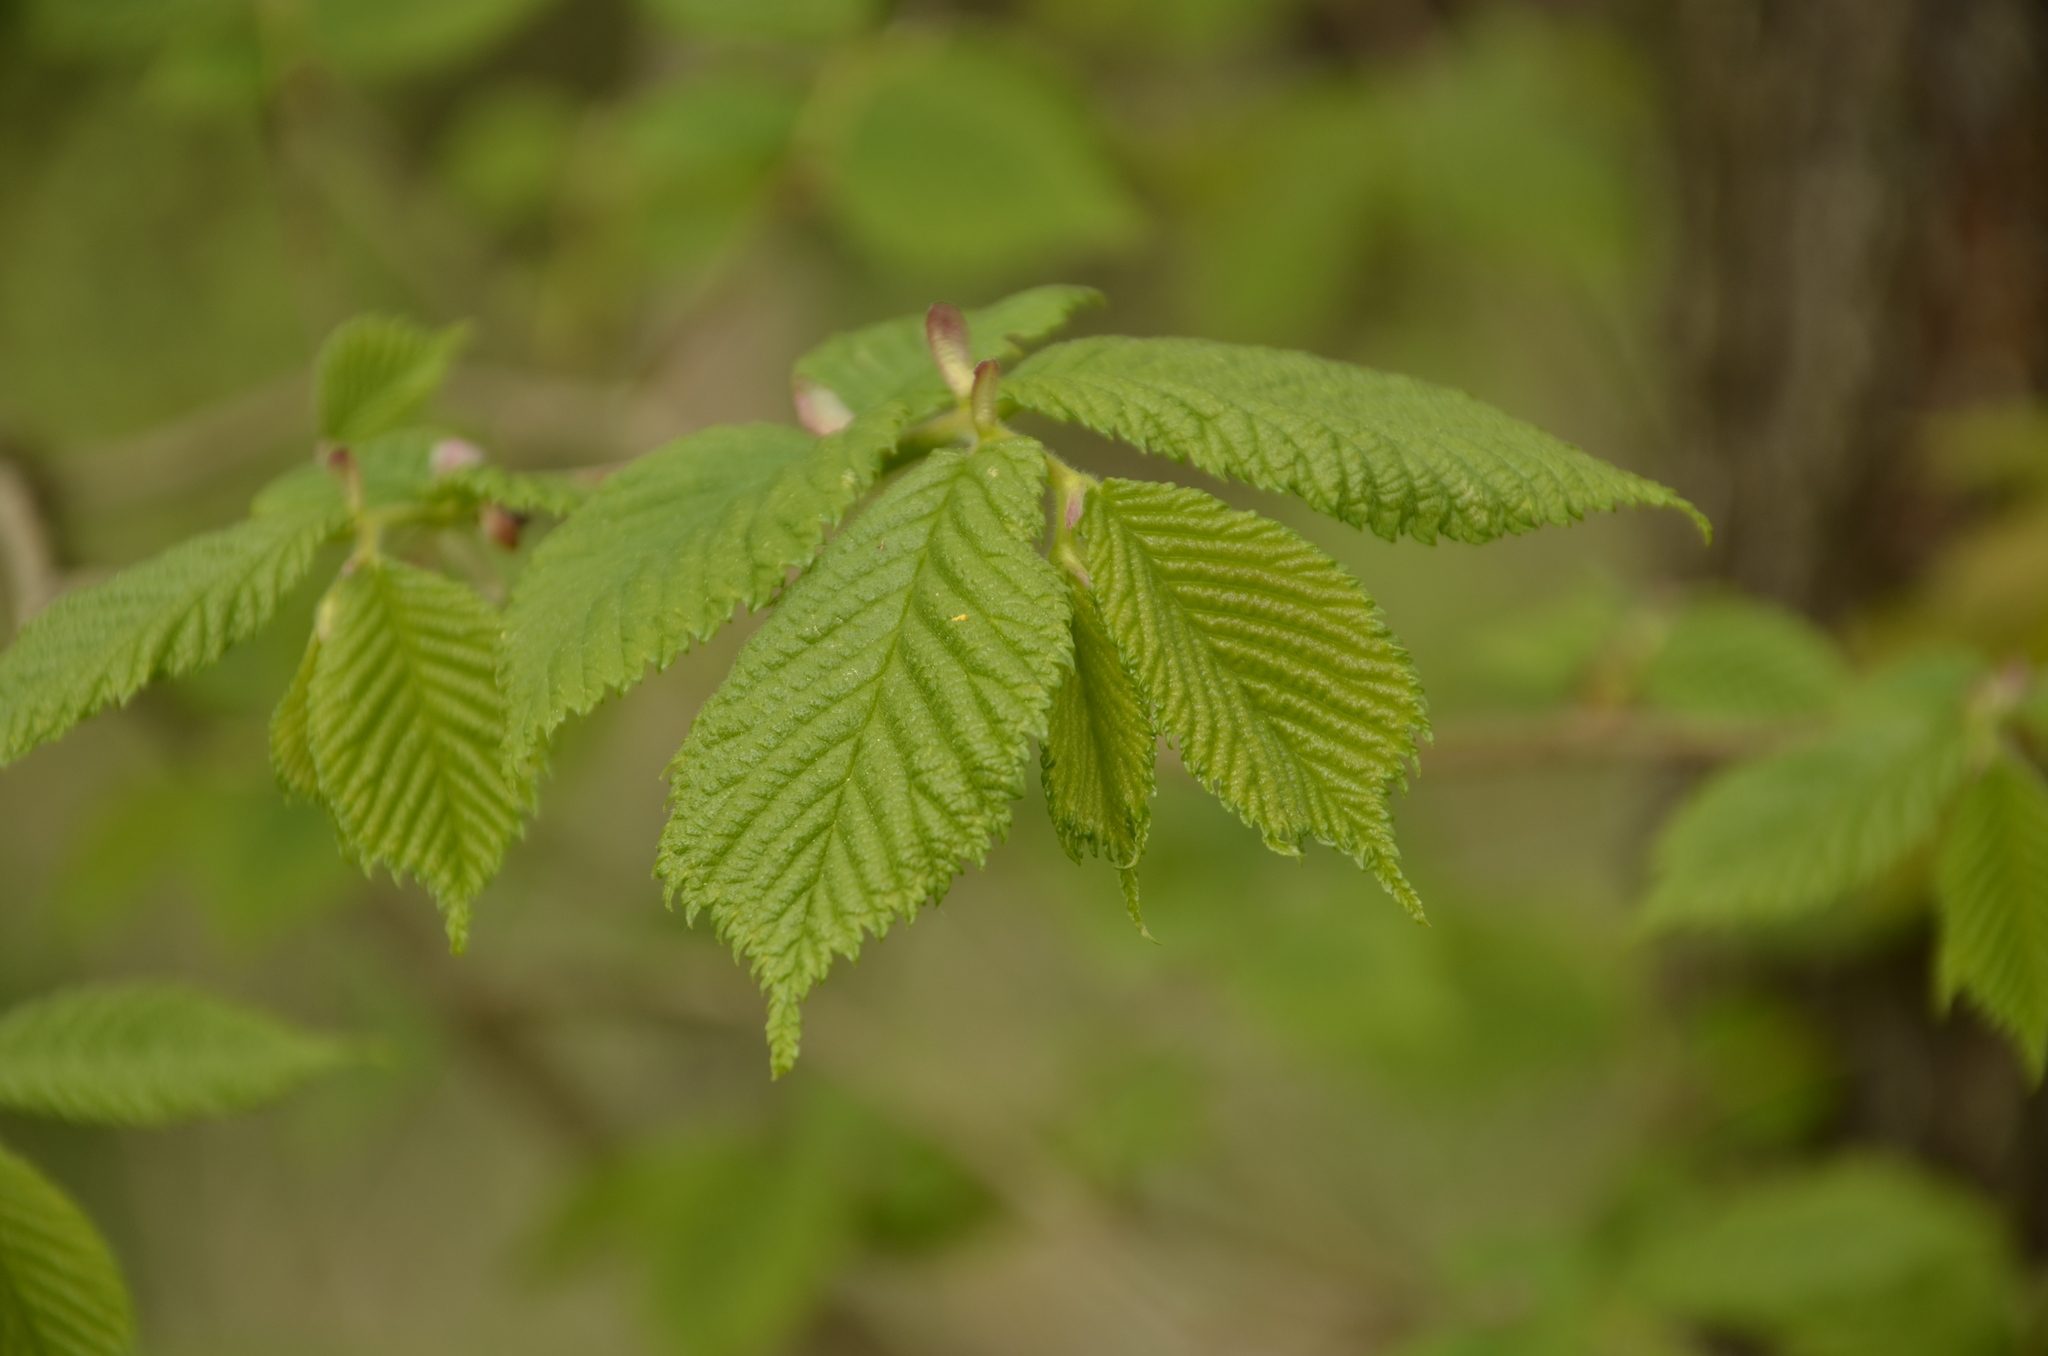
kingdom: Plantae
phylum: Tracheophyta
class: Magnoliopsida
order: Rosales
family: Ulmaceae
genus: Ulmus
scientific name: Ulmus glabra
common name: Wych elm
